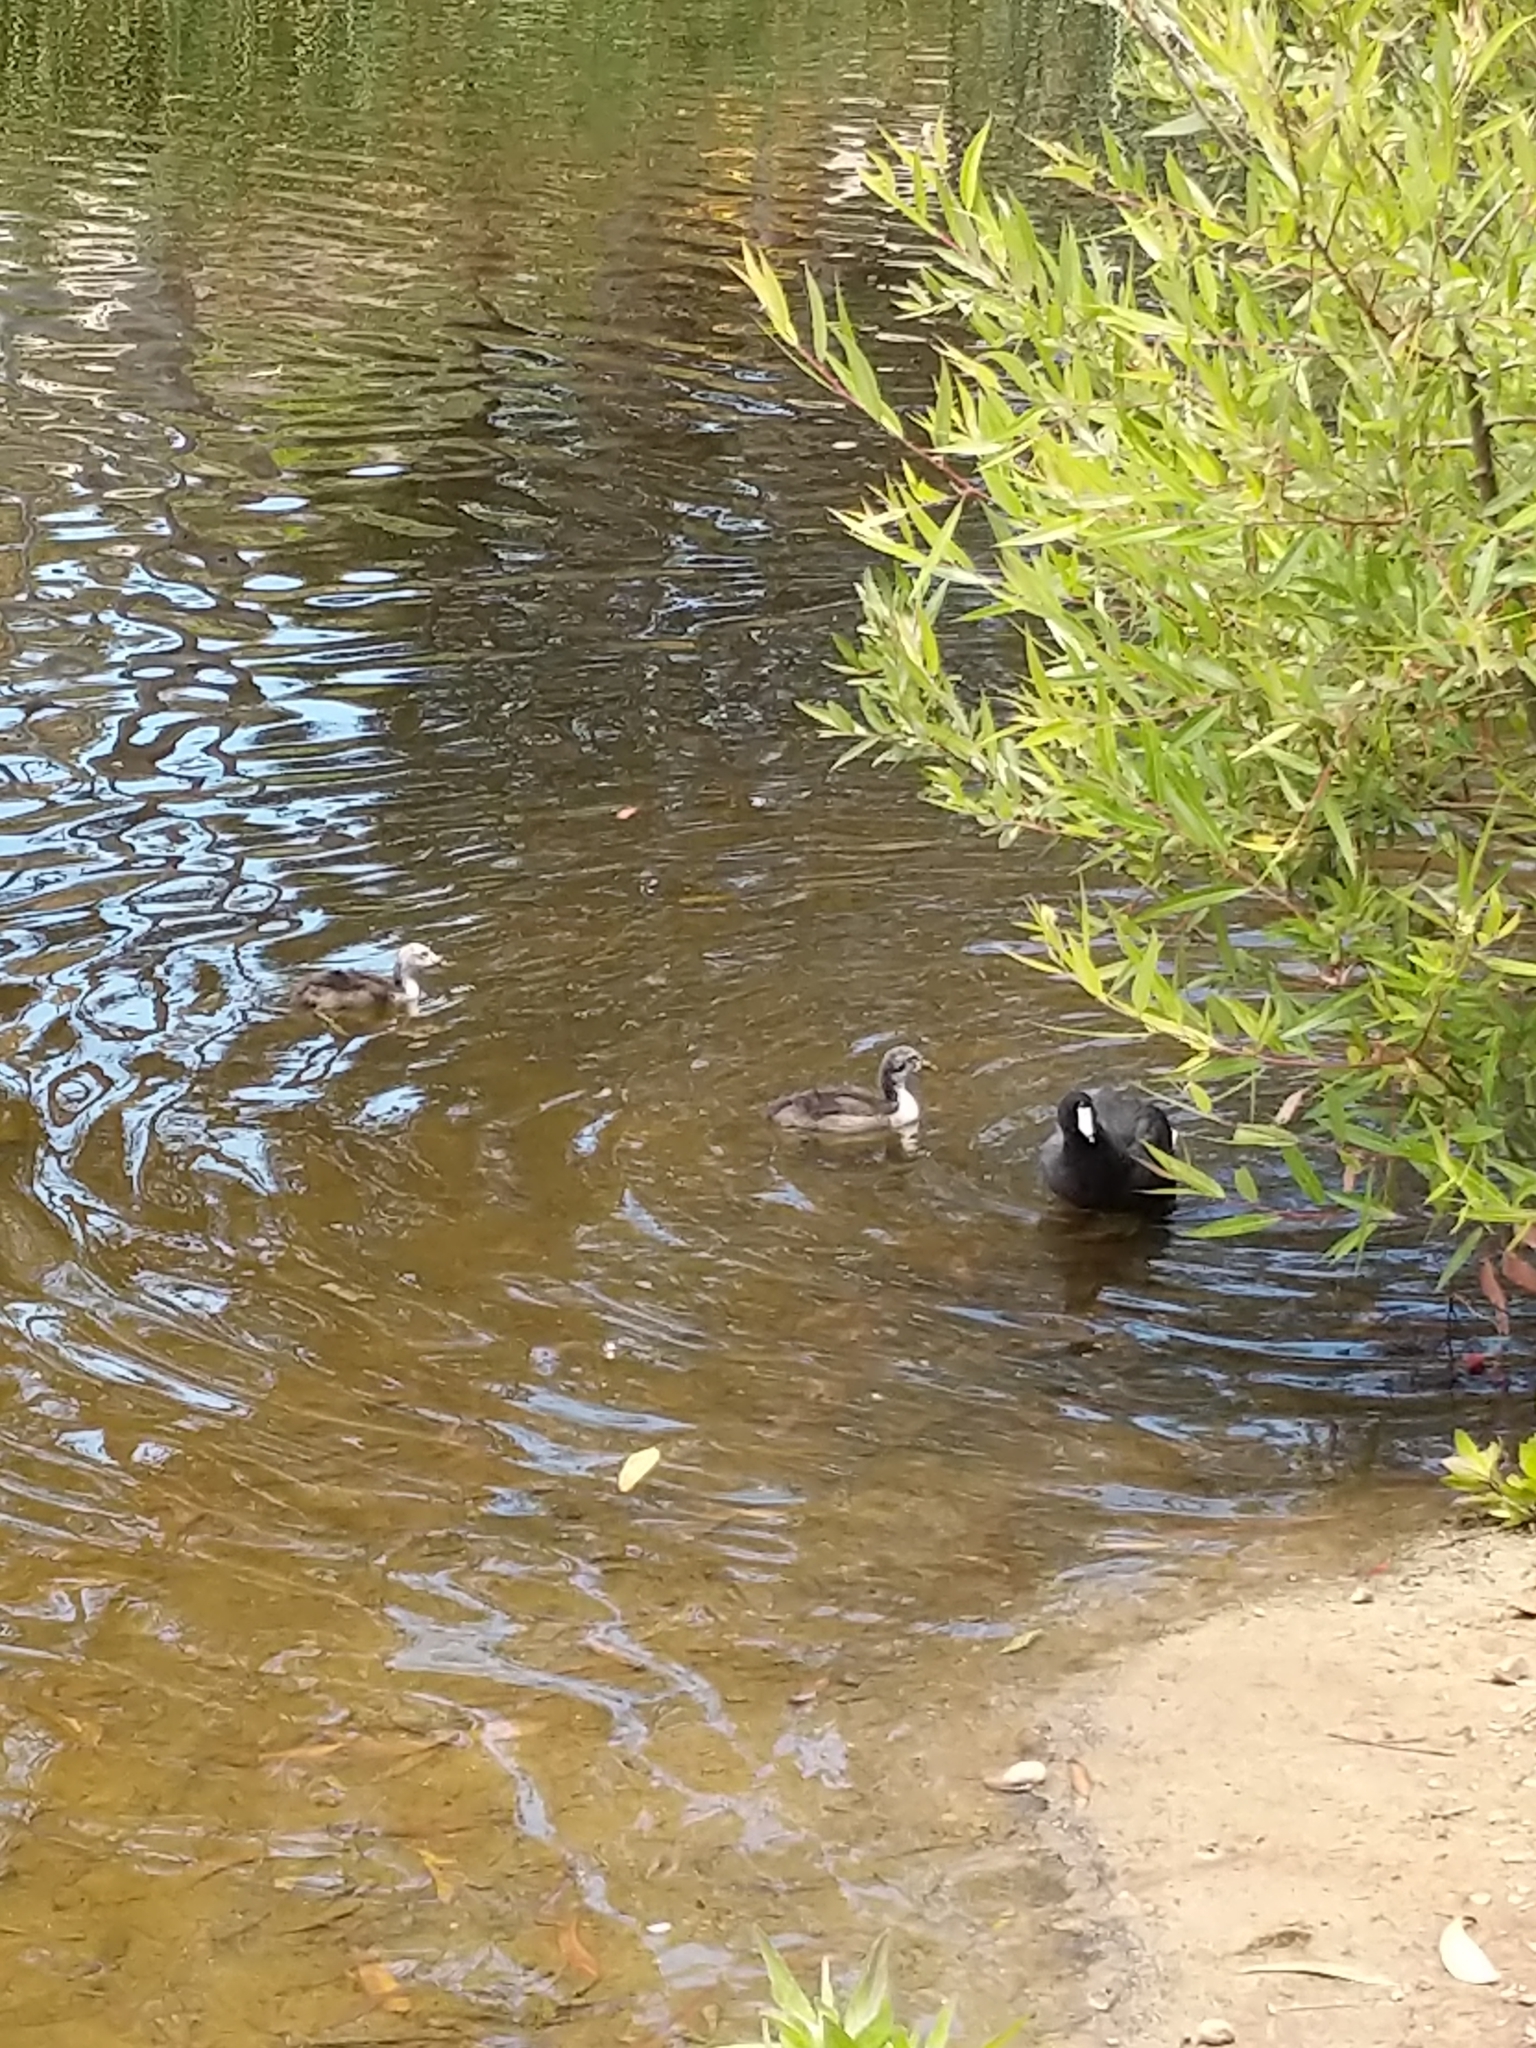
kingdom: Animalia
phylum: Chordata
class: Aves
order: Gruiformes
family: Rallidae
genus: Fulica
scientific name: Fulica americana
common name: American coot
